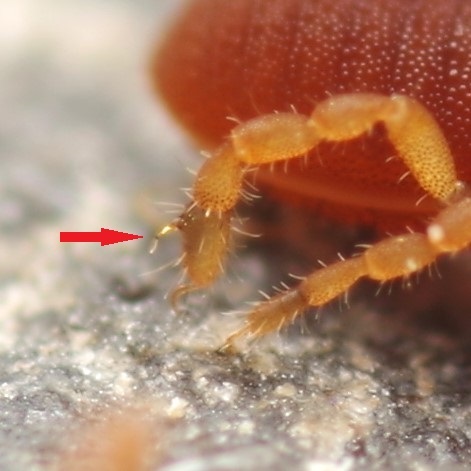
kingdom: Animalia
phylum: Arthropoda
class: Arachnida
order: Opiliones
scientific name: Opiliones
